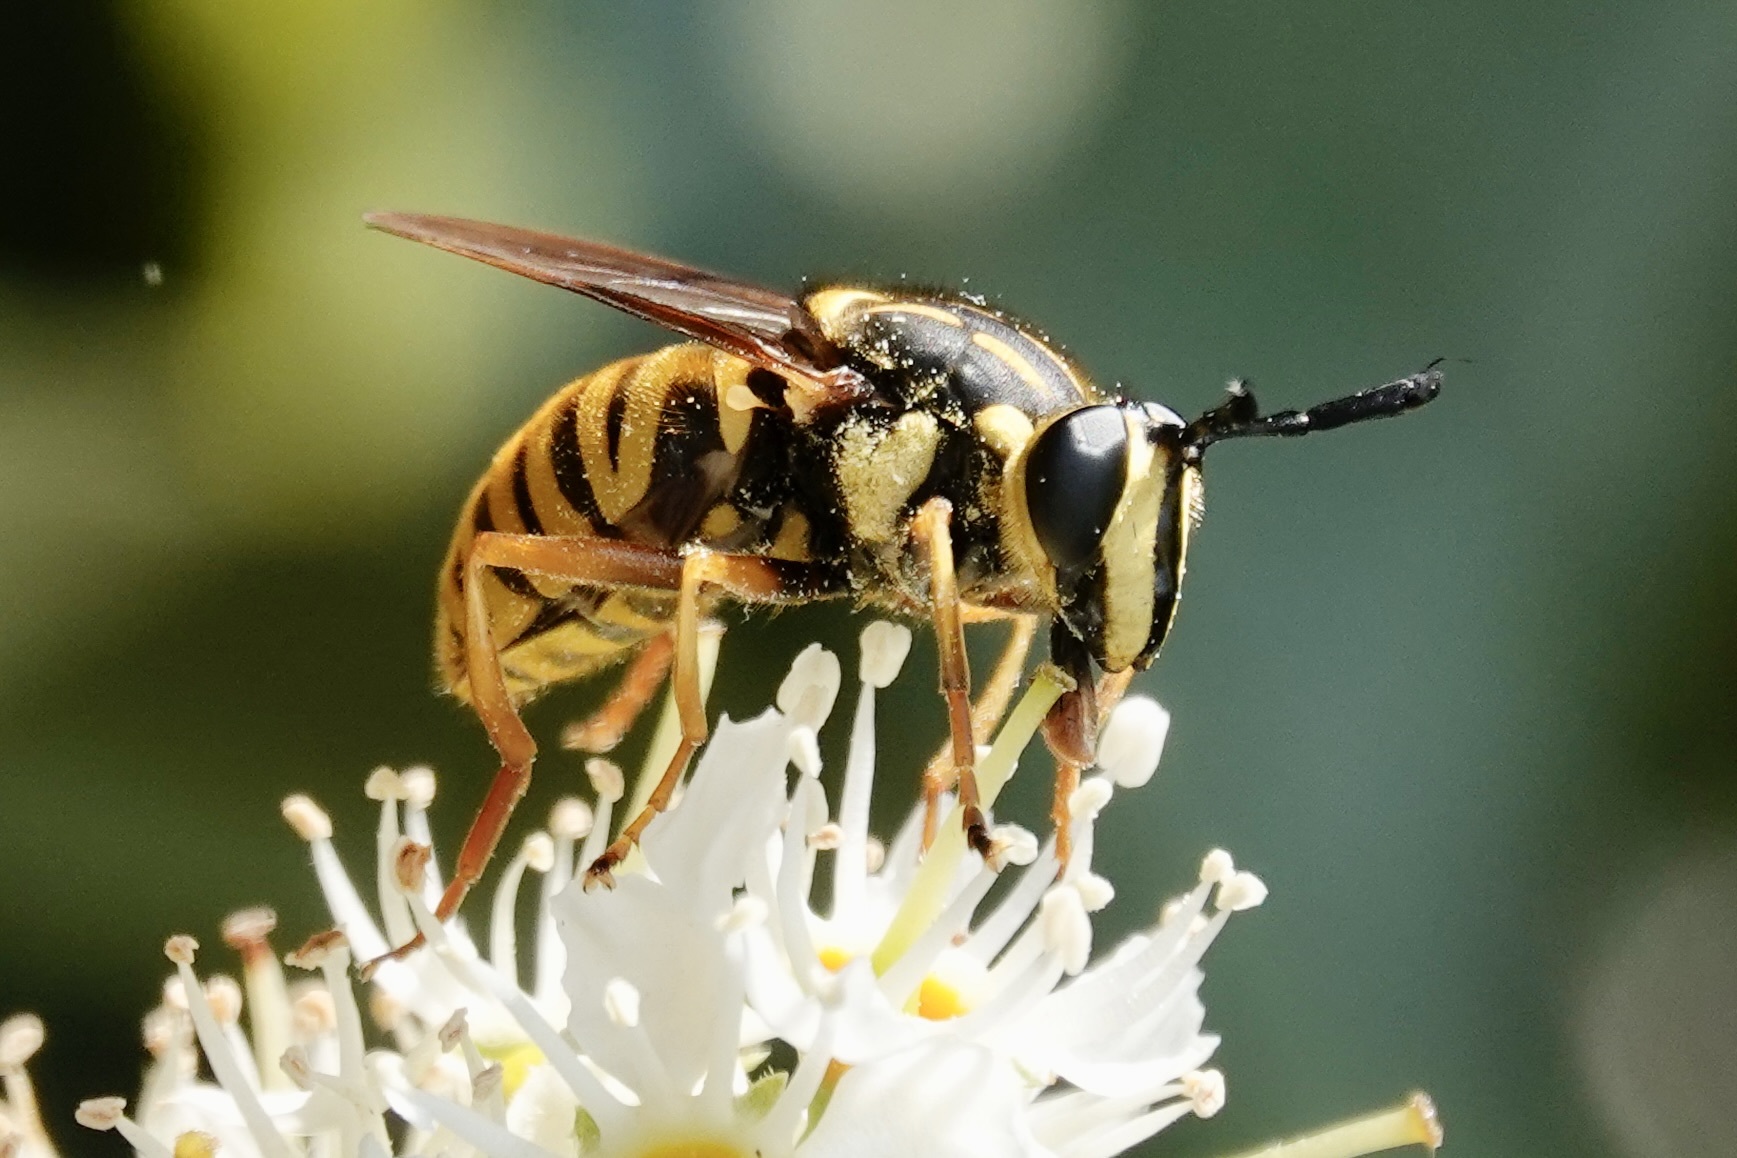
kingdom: Animalia
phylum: Arthropoda
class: Insecta
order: Diptera
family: Syrphidae
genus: Sphecomyia
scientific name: Sphecomyia vittata
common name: Long-horned yellowjacket fly
